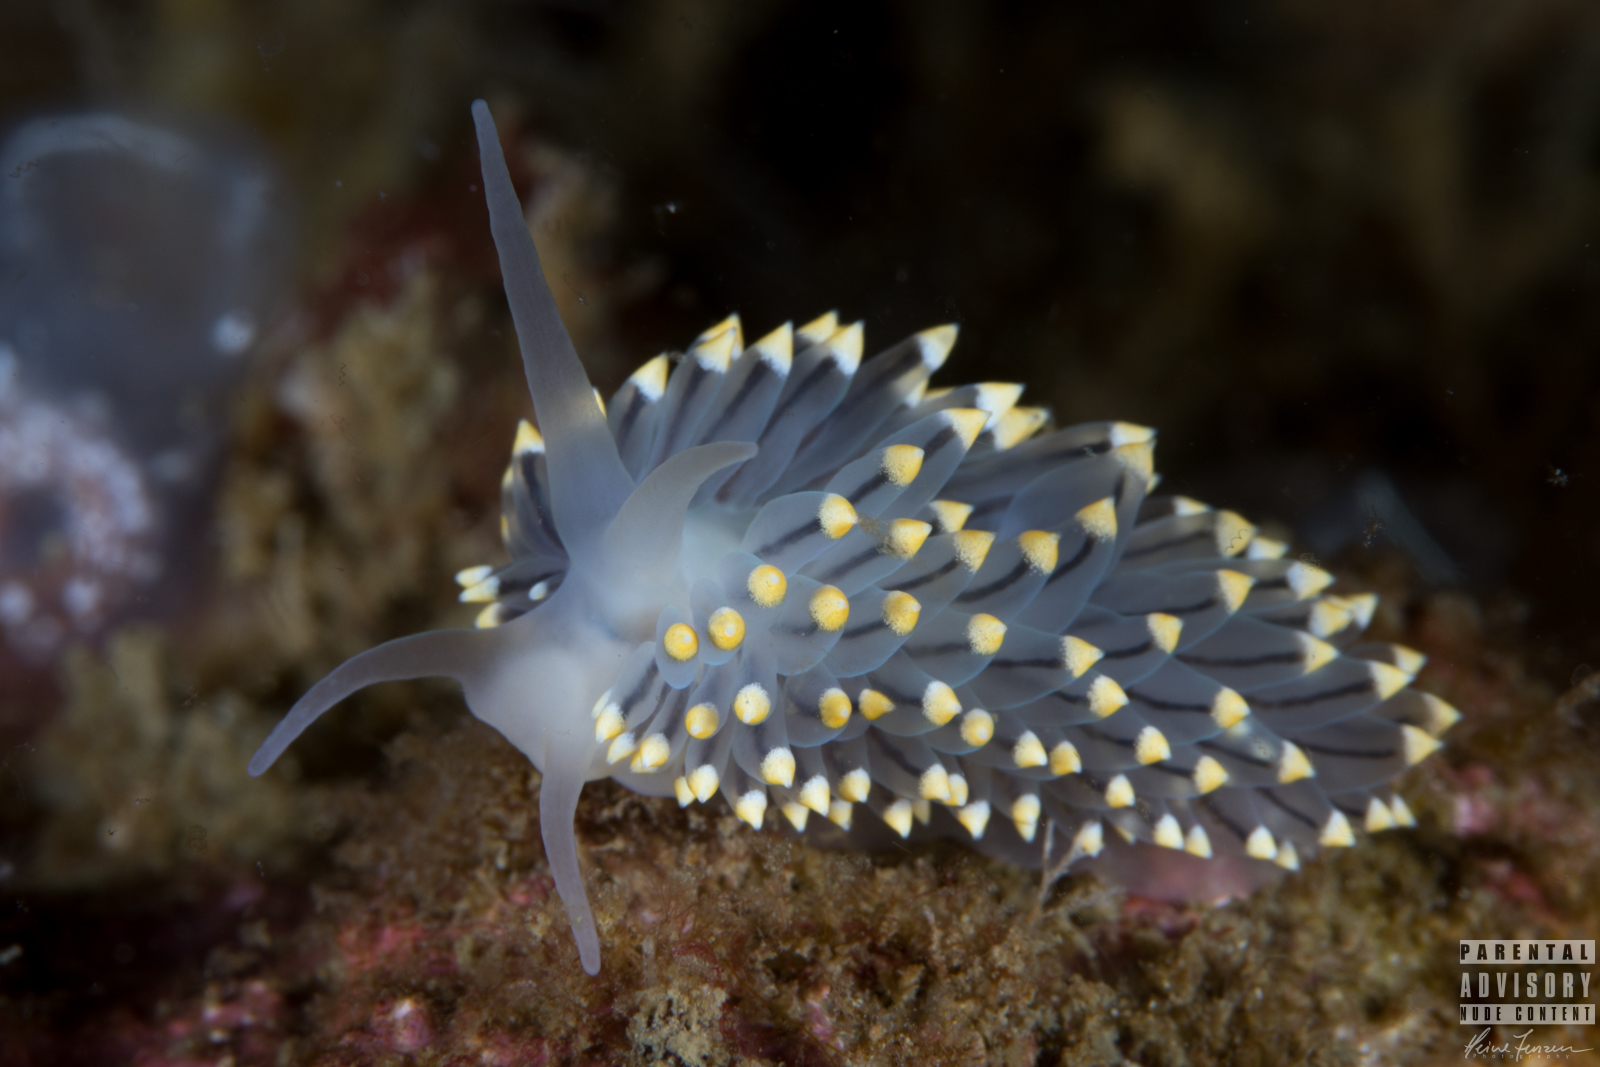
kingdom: Animalia
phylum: Mollusca
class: Gastropoda
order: Nudibranchia
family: Eubranchidae
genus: Eubranchus
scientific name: Eubranchus tricolor
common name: Painted balloon aeolis
